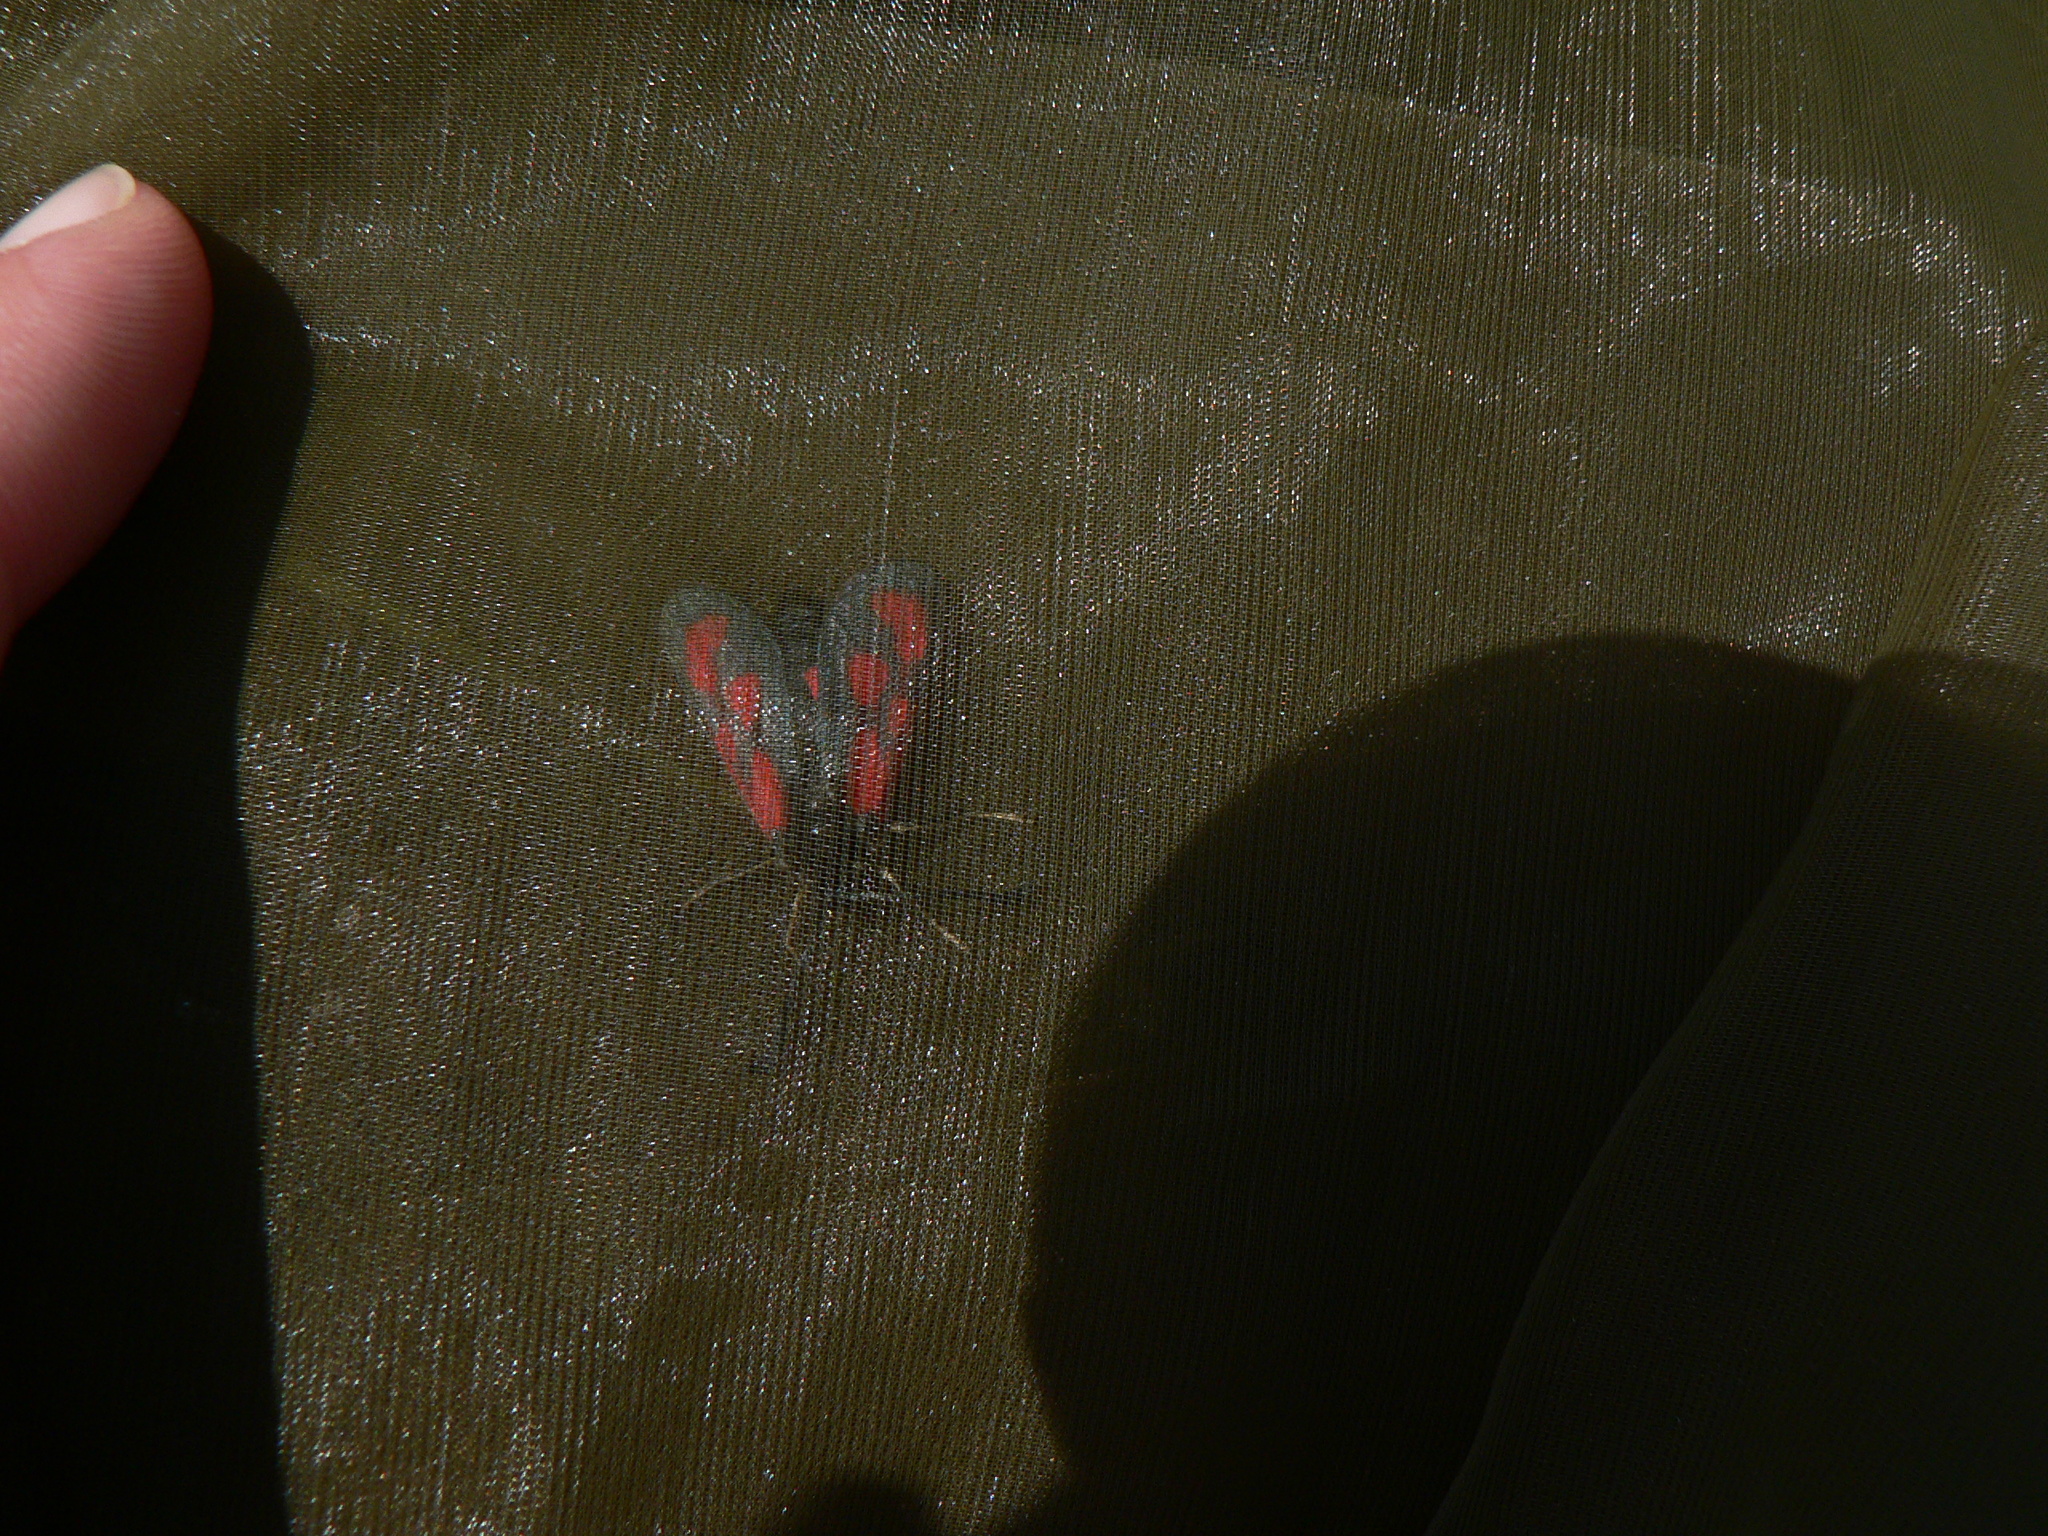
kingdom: Animalia
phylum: Arthropoda
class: Insecta
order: Lepidoptera
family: Zygaenidae
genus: Zygaena
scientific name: Zygaena loti
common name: Slender scotch burnet
